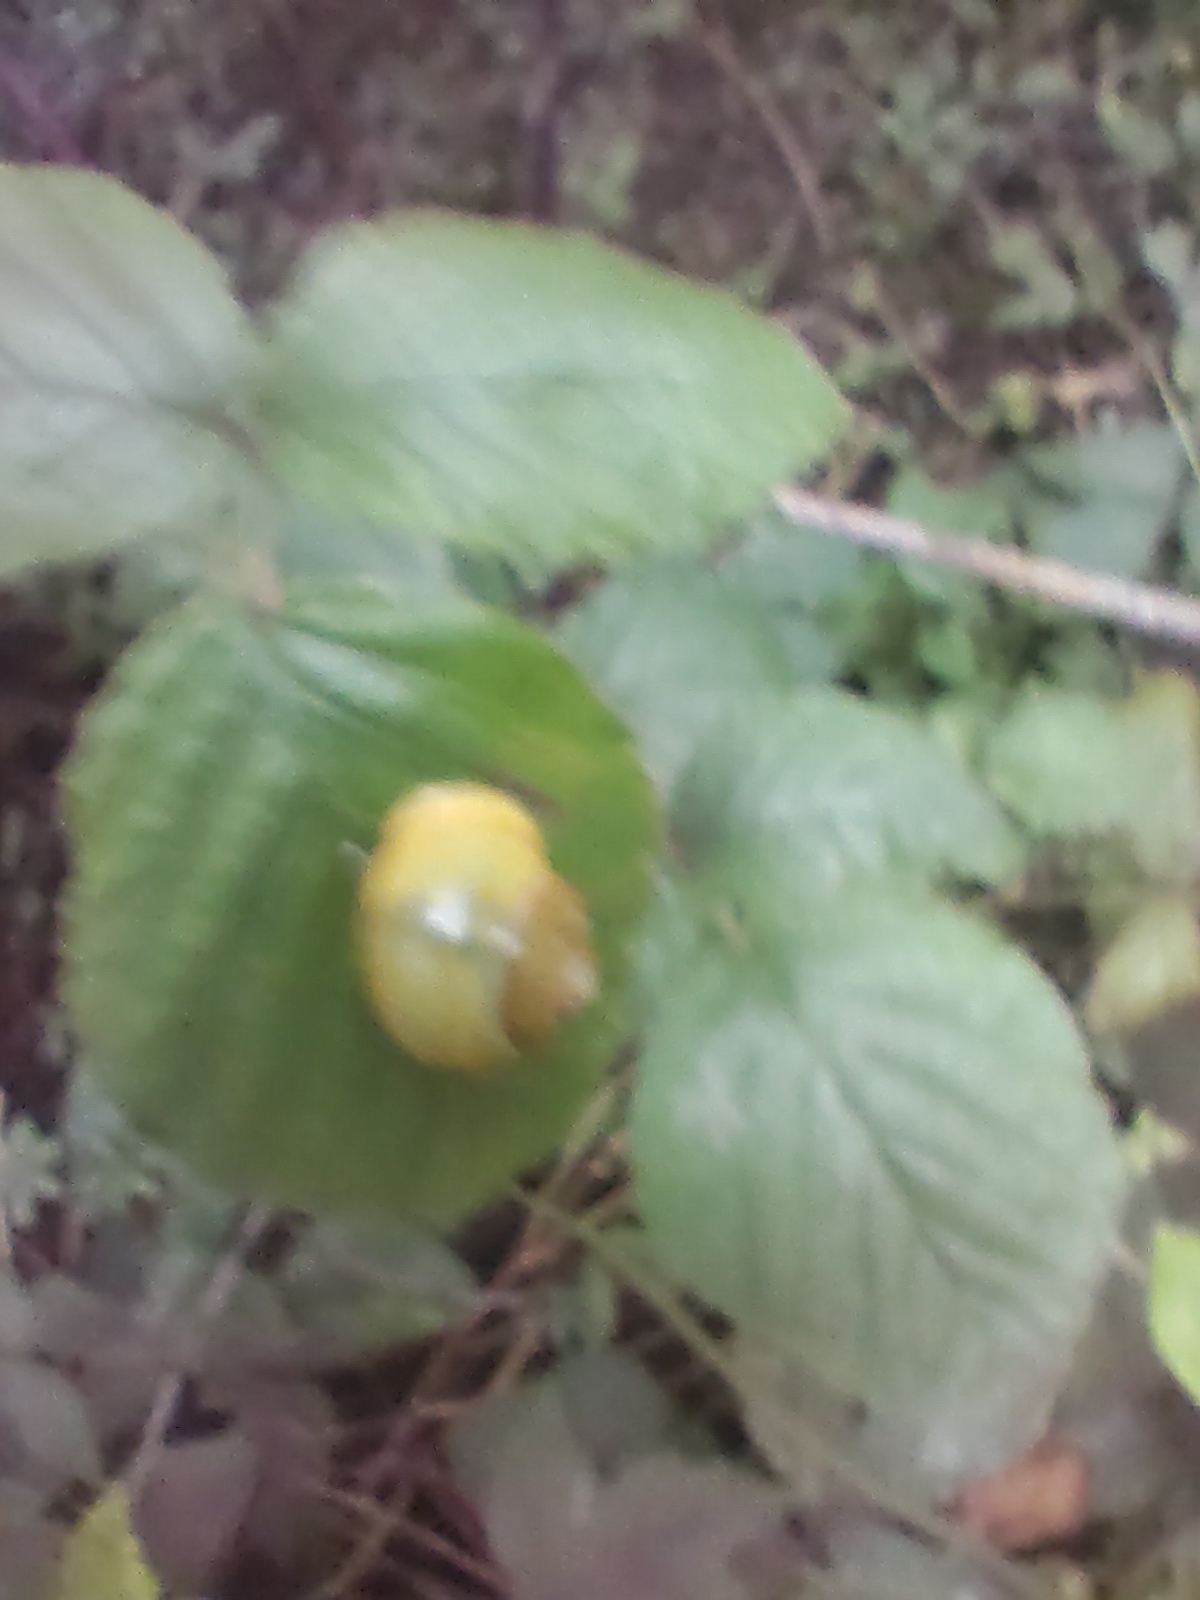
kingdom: Animalia
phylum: Mollusca
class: Gastropoda
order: Stylommatophora
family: Helicidae
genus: Cepaea
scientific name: Cepaea hortensis
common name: White-lip gardensnail
